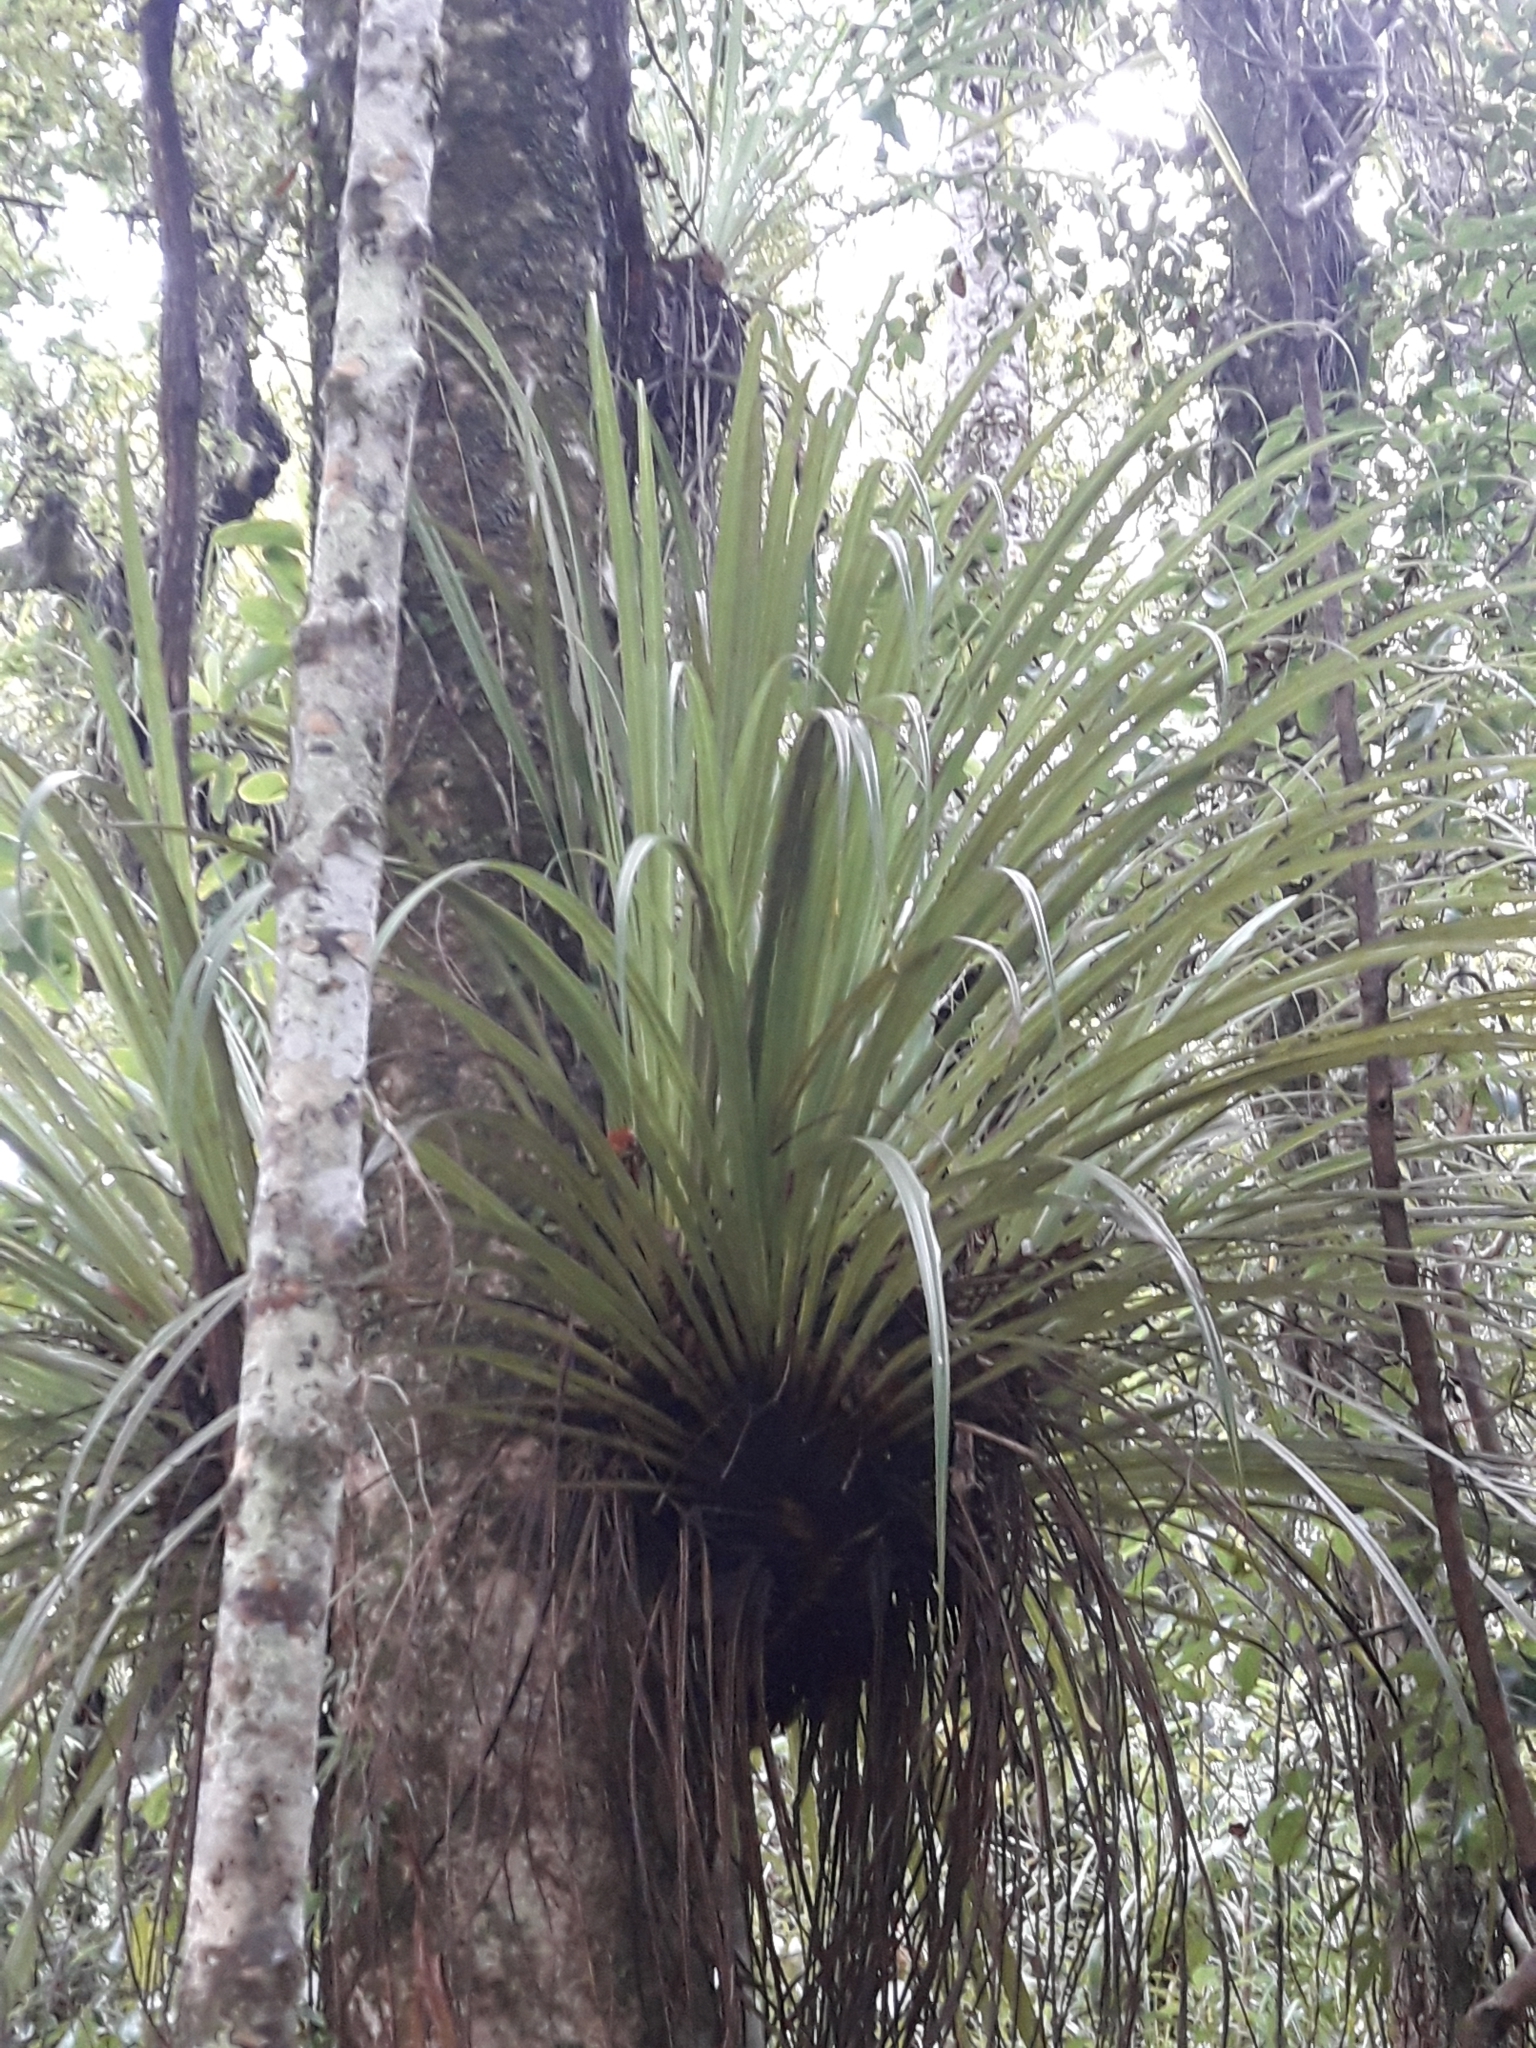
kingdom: Plantae
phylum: Tracheophyta
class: Liliopsida
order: Asparagales
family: Asteliaceae
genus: Astelia
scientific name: Astelia microsperma
